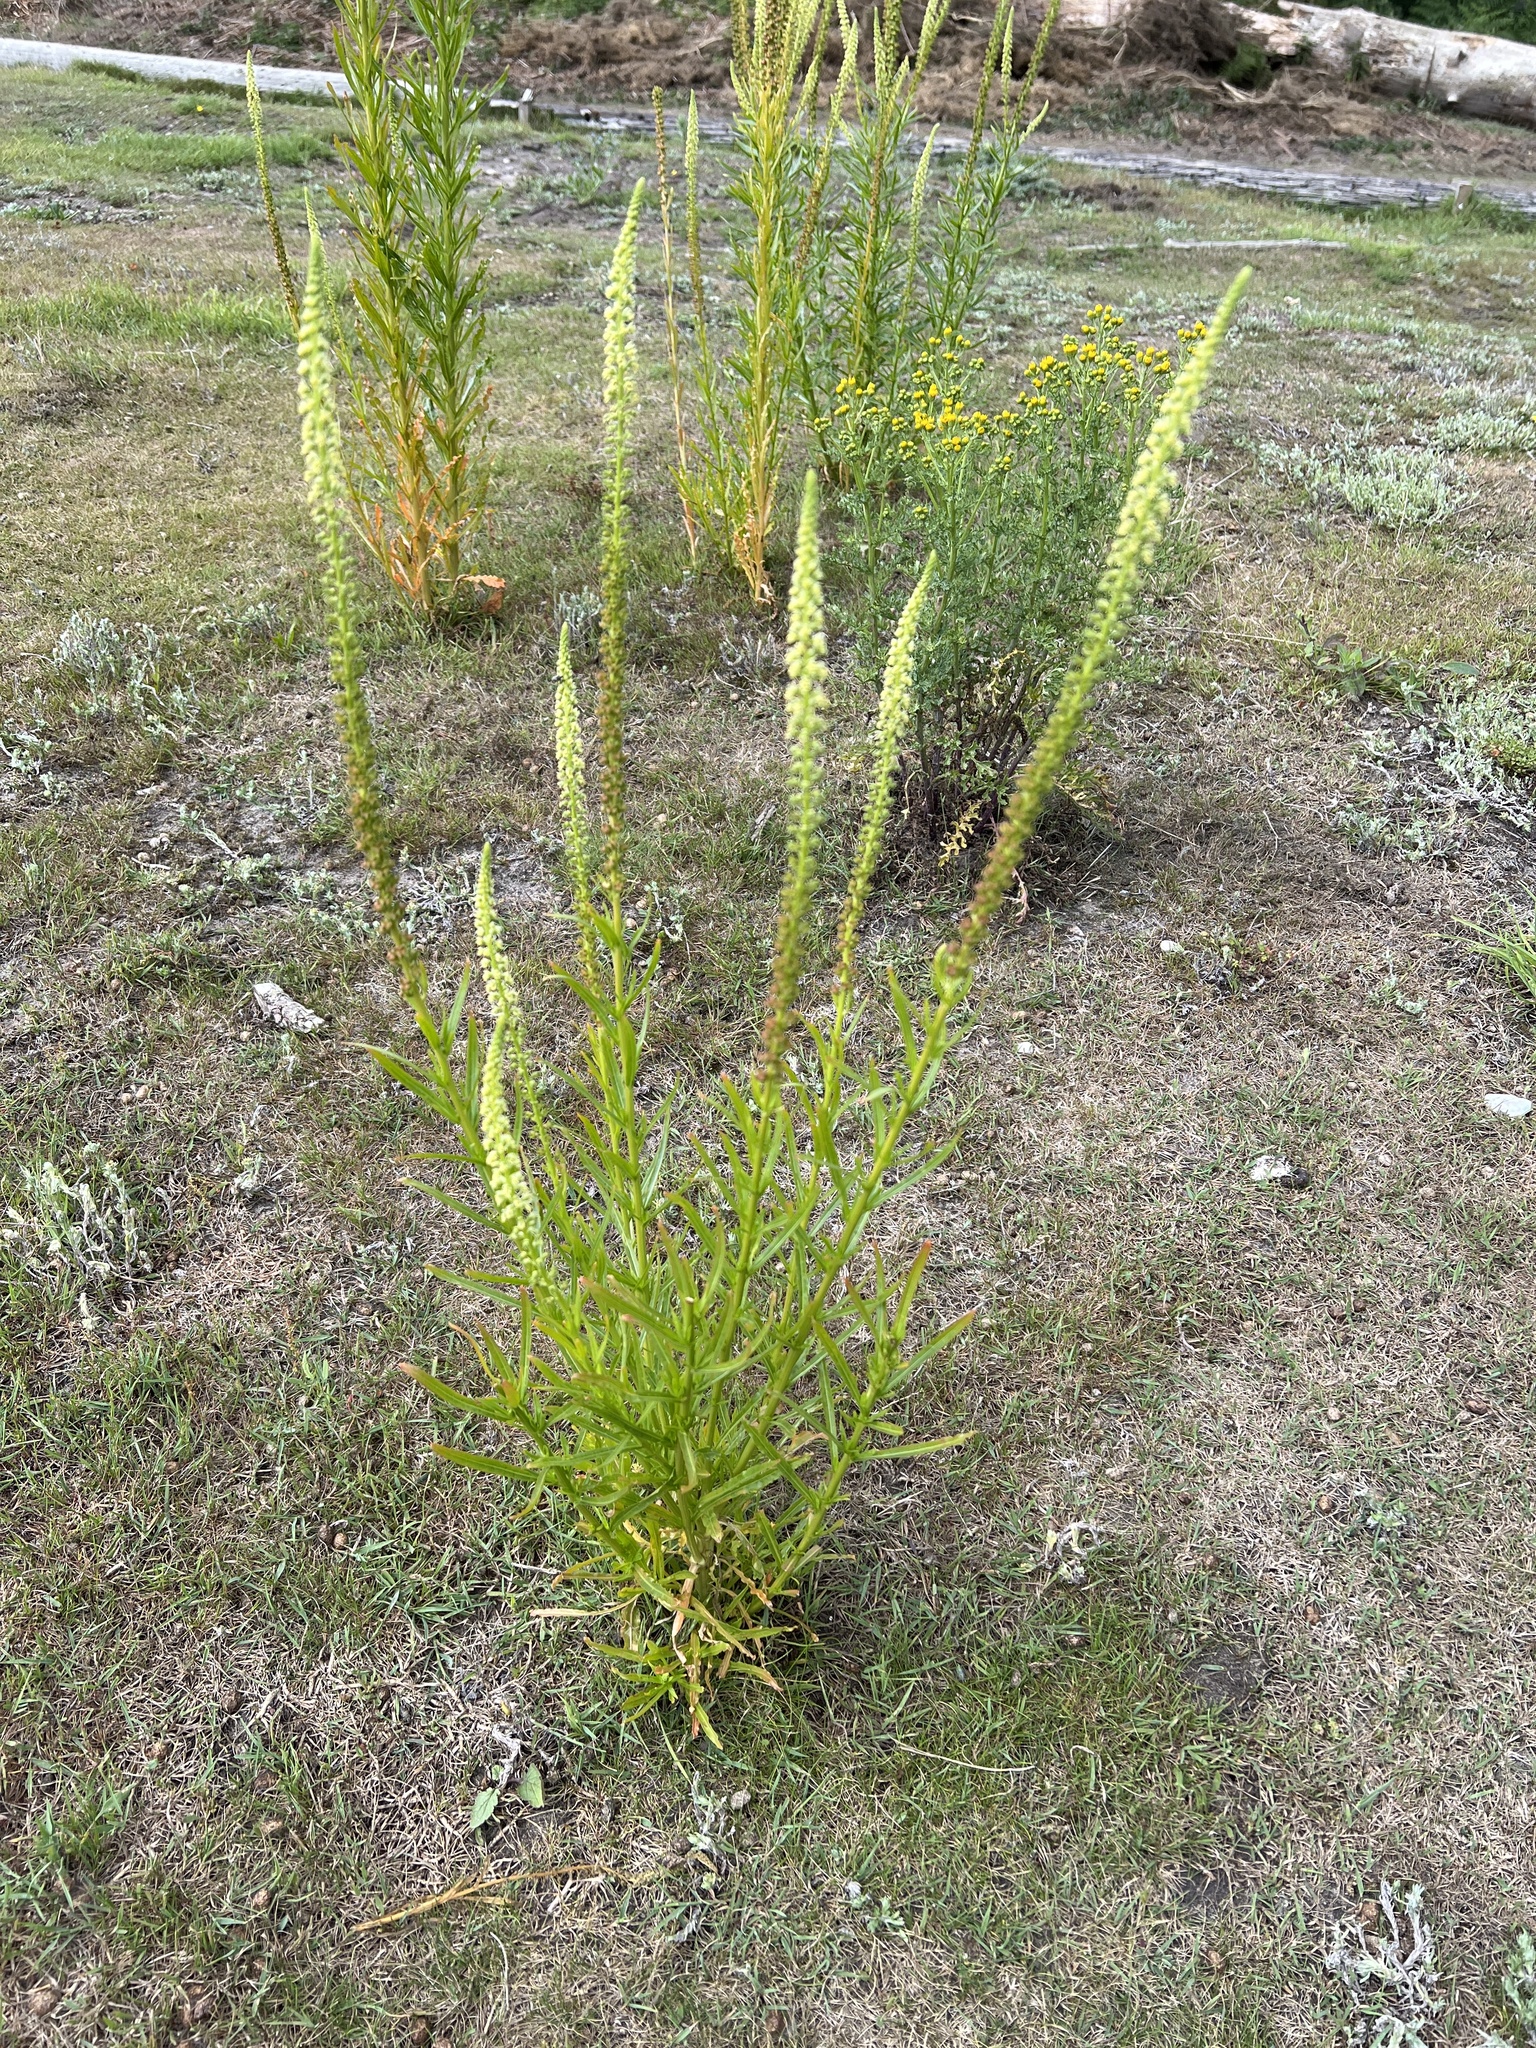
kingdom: Plantae
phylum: Tracheophyta
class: Magnoliopsida
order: Brassicales
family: Resedaceae
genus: Reseda
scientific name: Reseda luteola
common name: Weld
